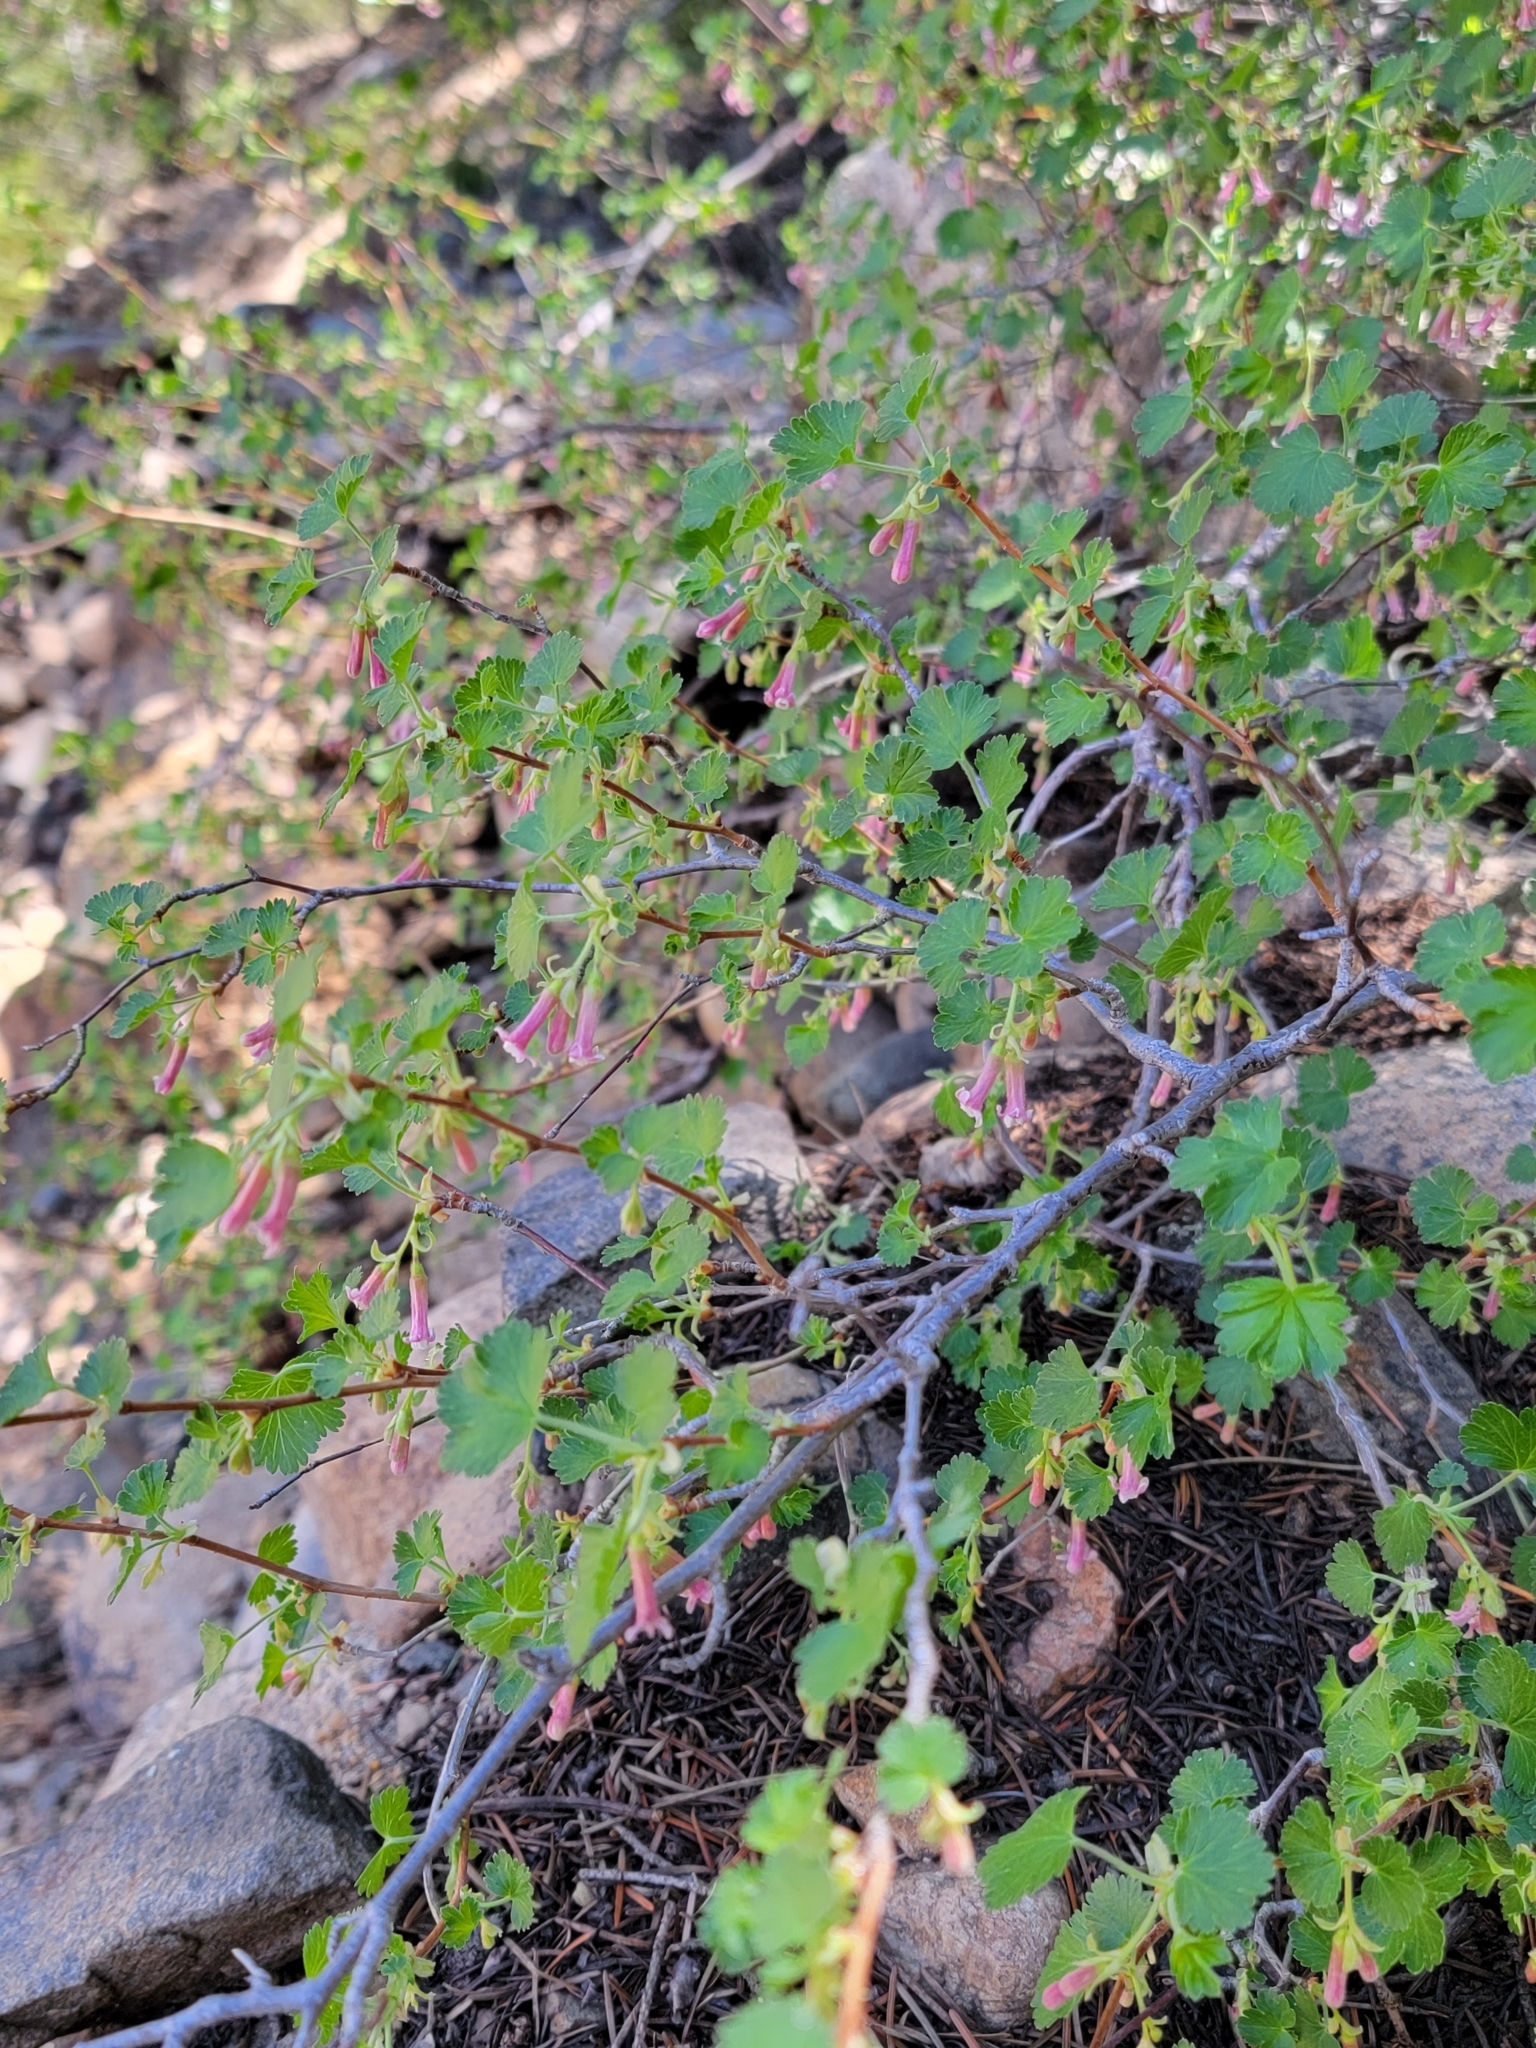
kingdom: Plantae
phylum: Tracheophyta
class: Magnoliopsida
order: Saxifragales
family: Grossulariaceae
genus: Ribes
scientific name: Ribes cereum
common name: Wax currant
